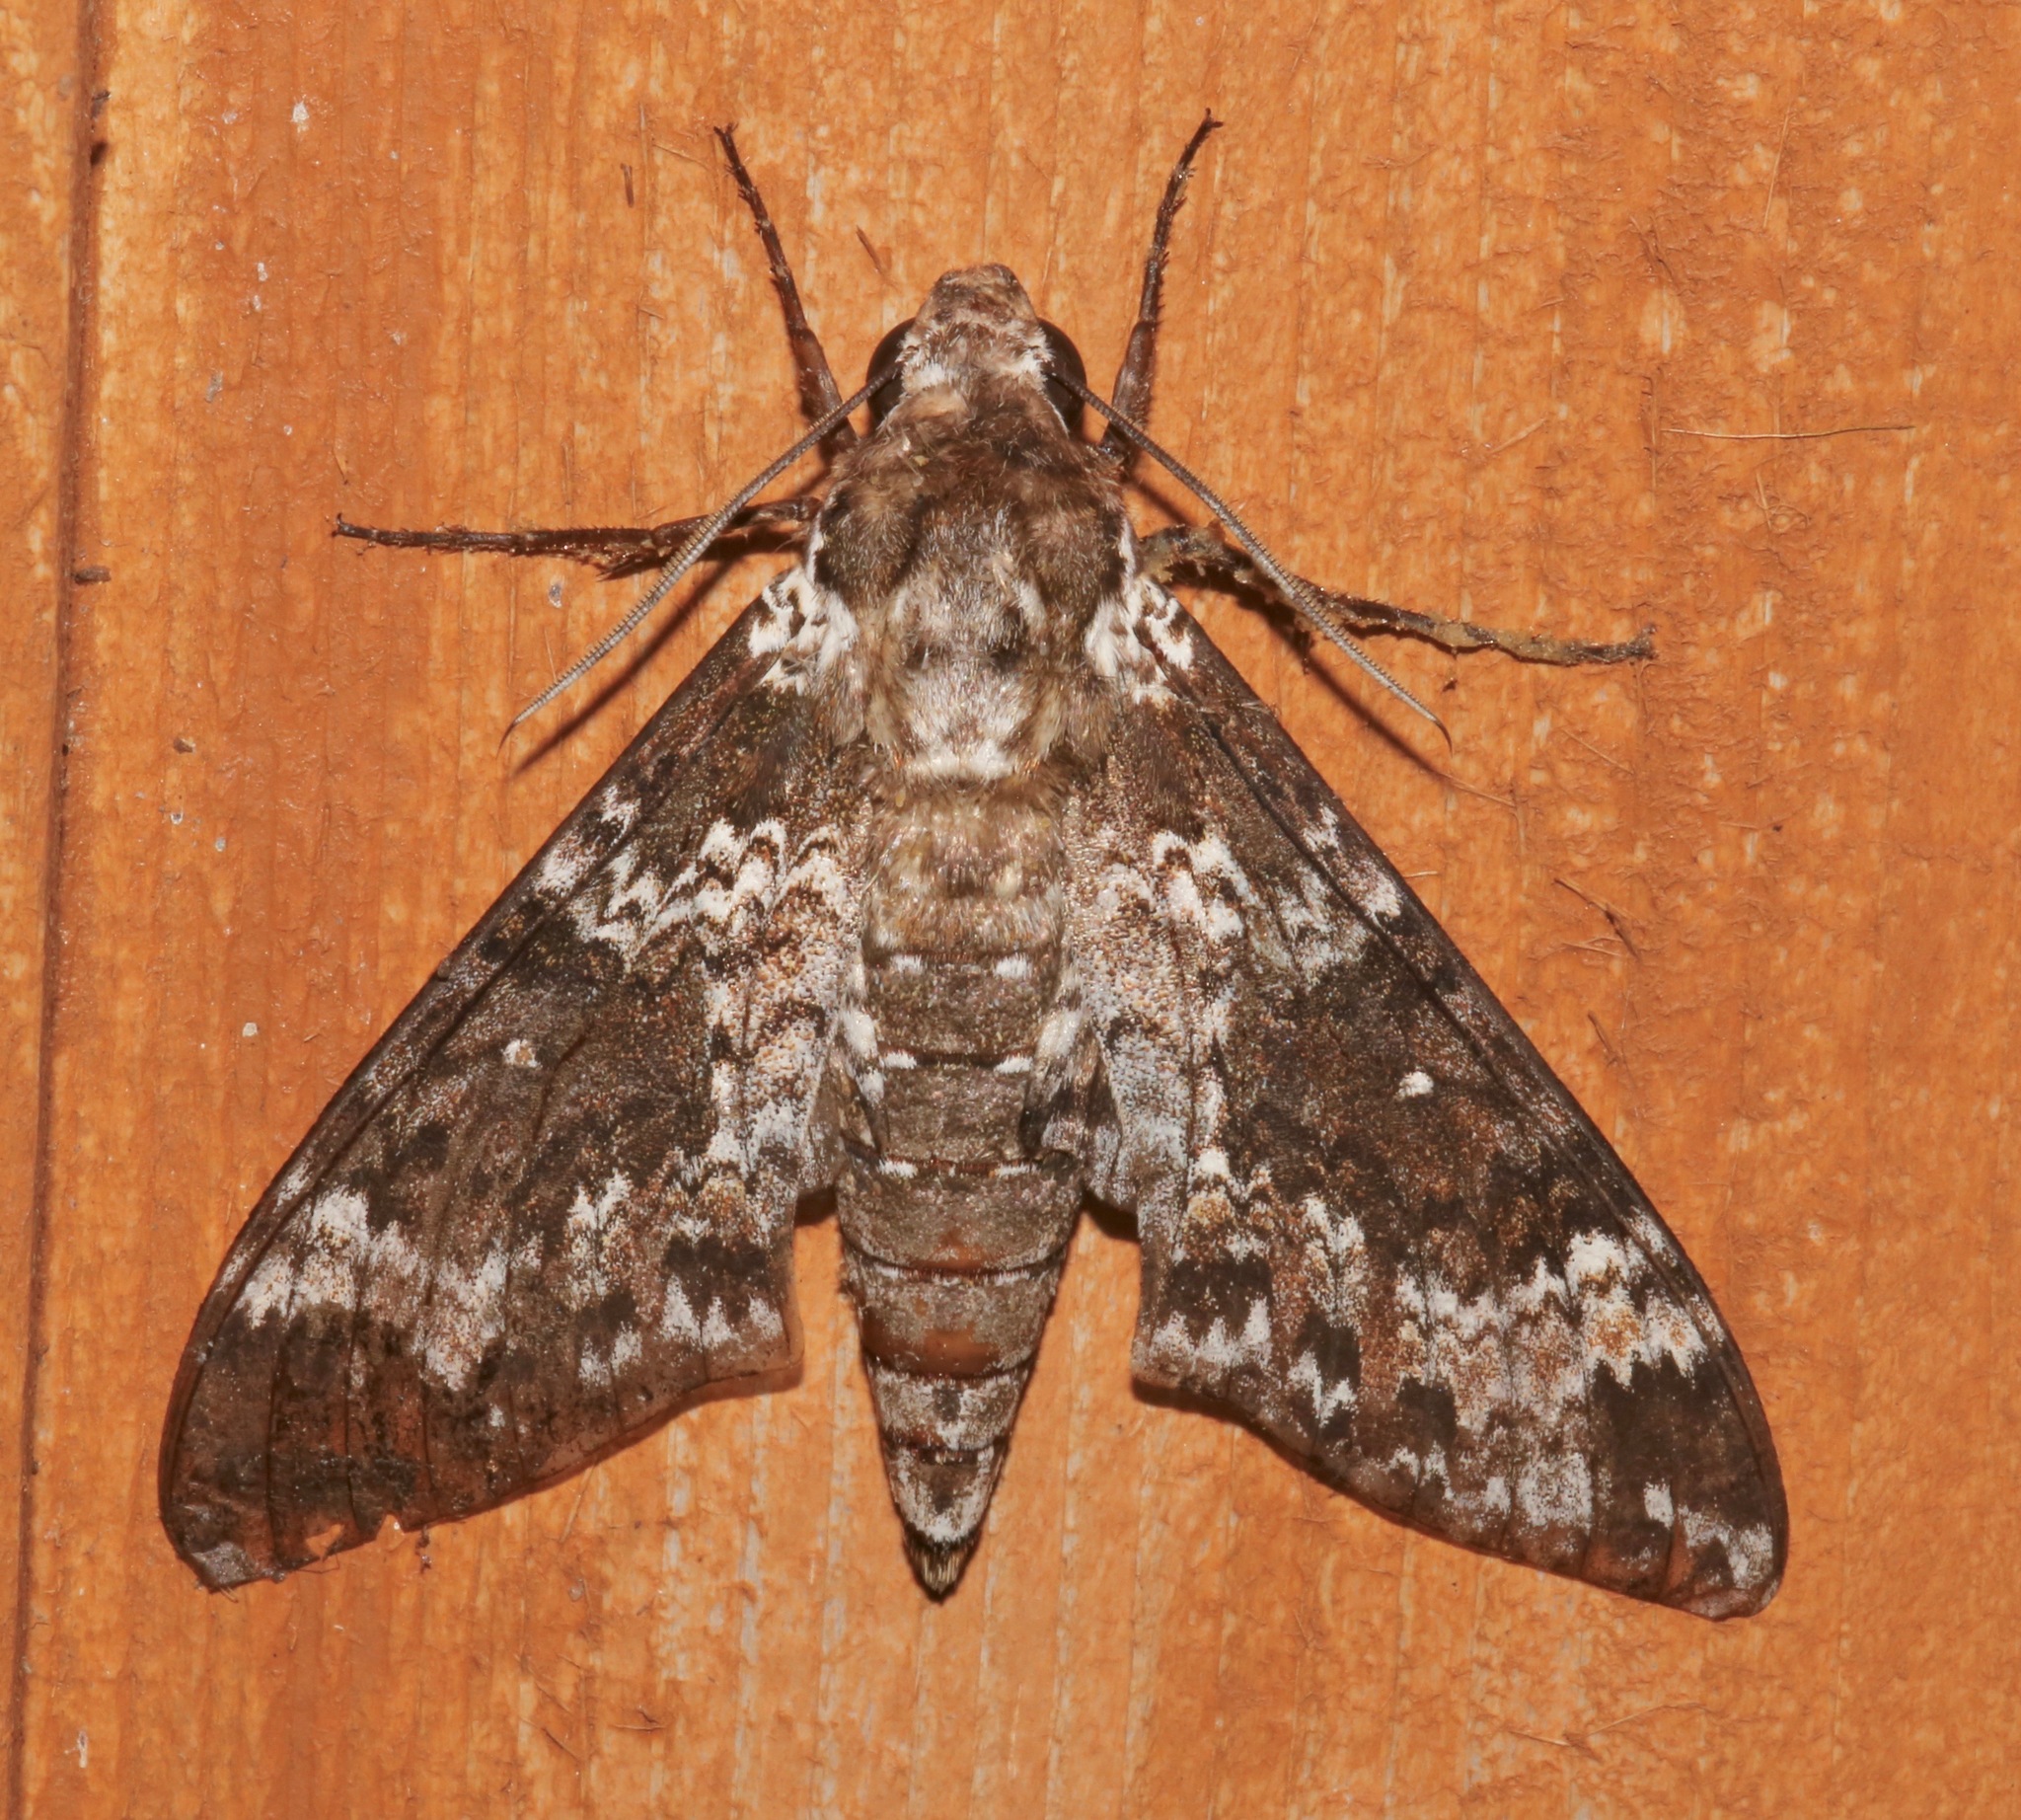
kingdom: Animalia
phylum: Arthropoda
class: Insecta
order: Lepidoptera
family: Sphingidae
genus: Manduca
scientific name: Manduca rustica
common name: Rustic sphinx
